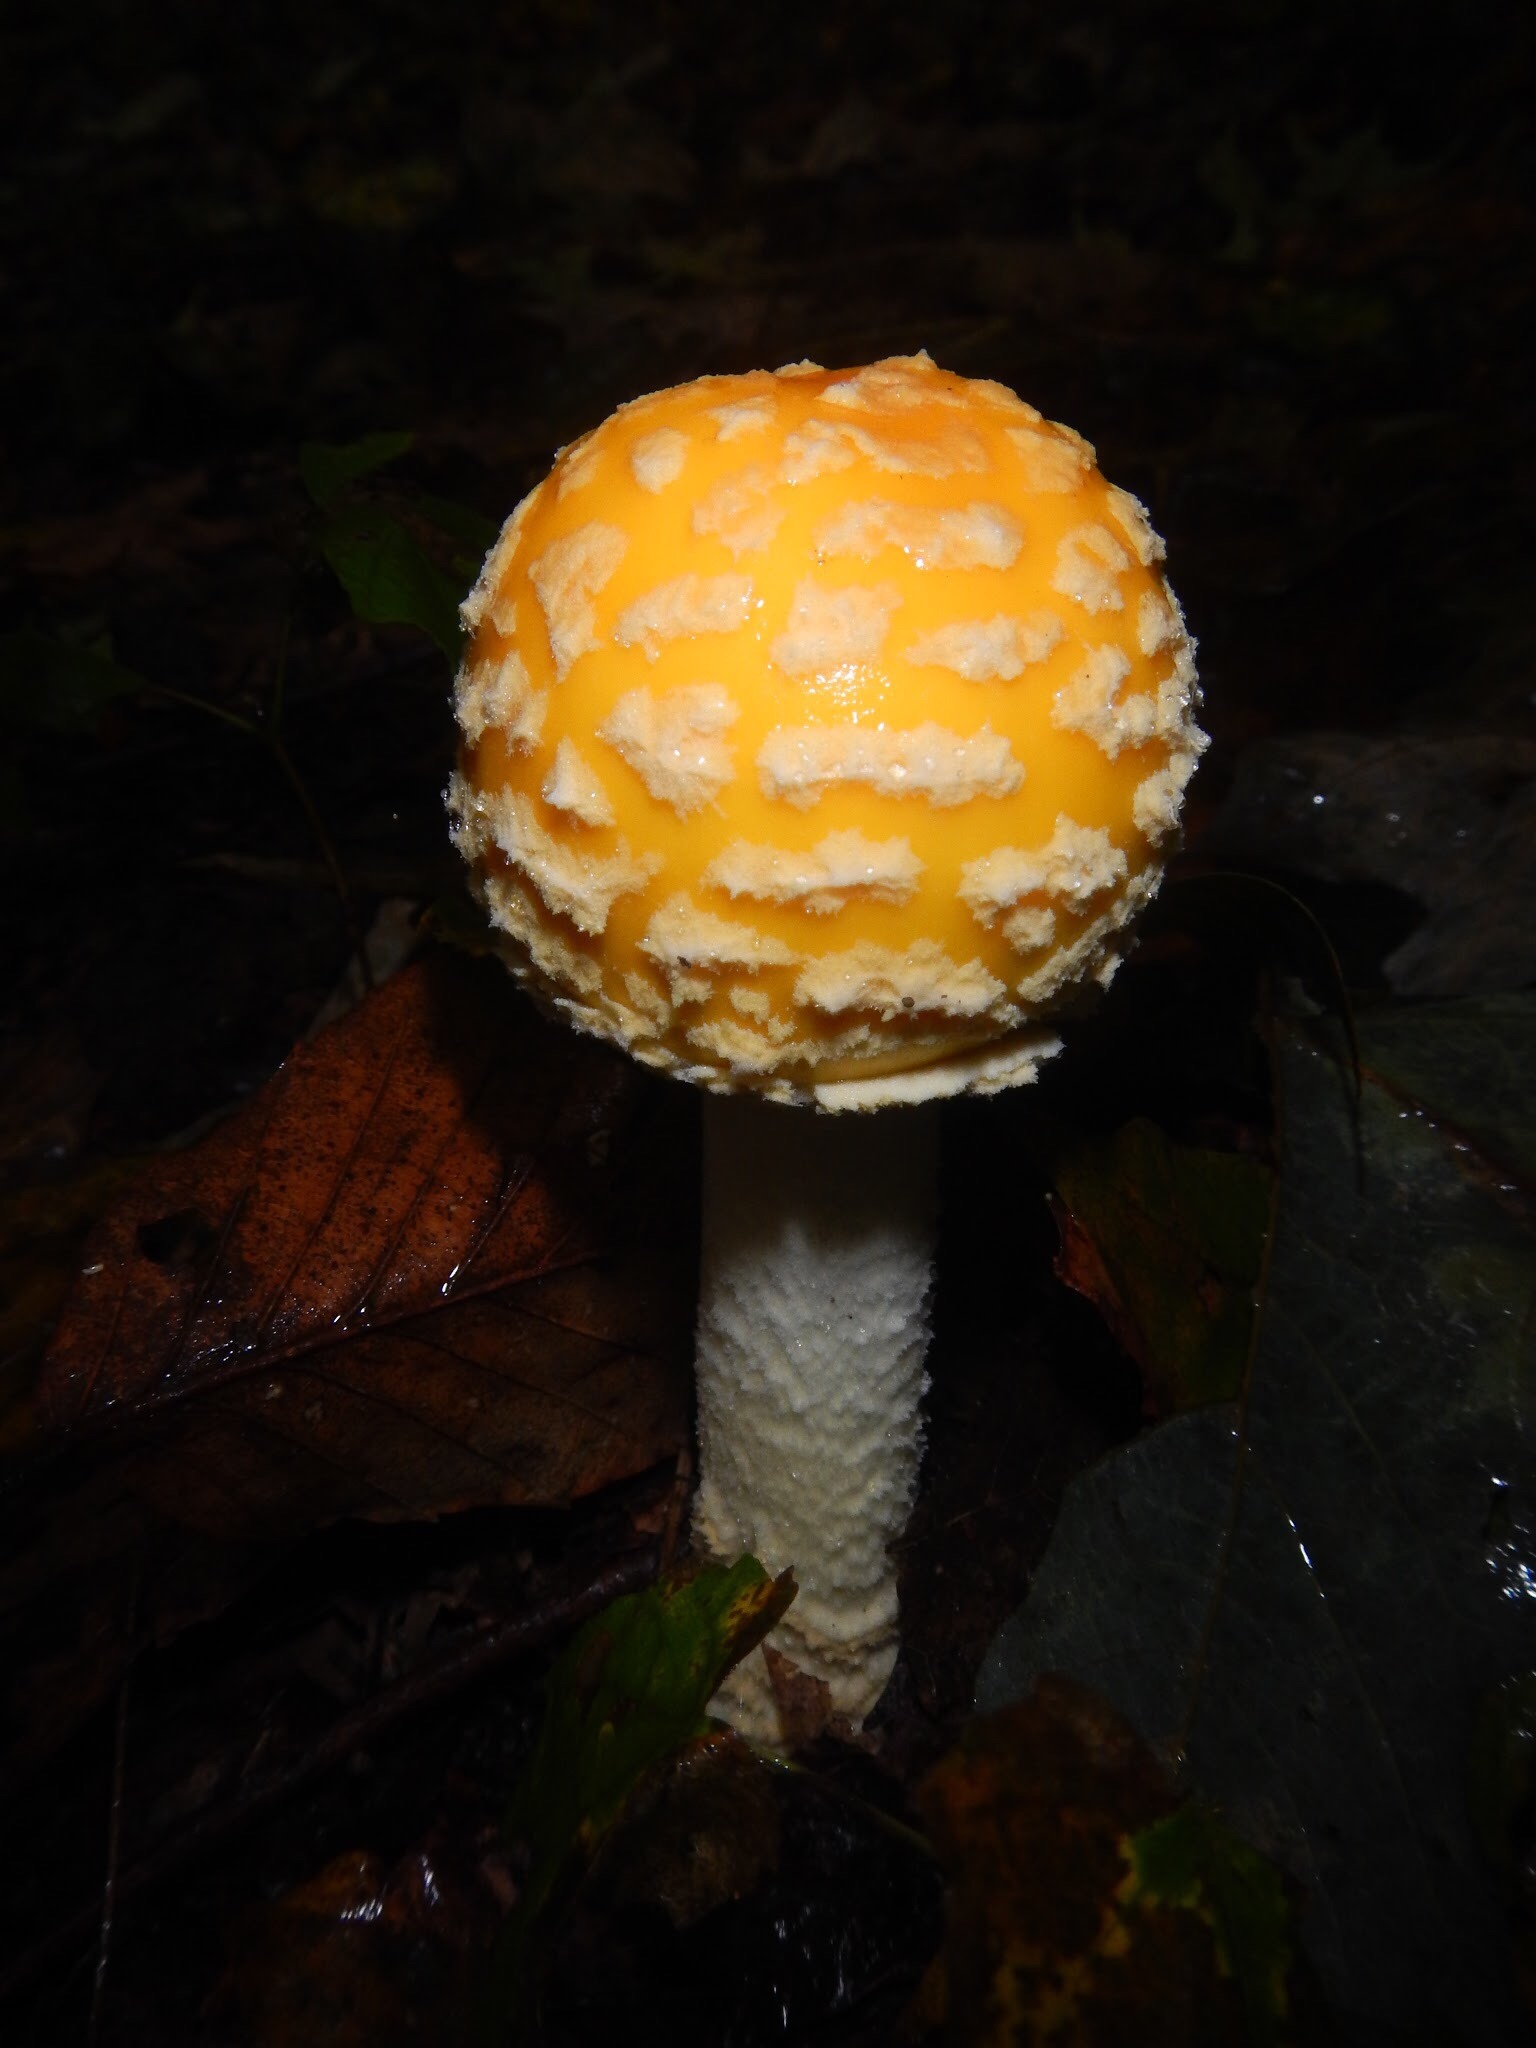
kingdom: Fungi
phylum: Basidiomycota
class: Agaricomycetes
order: Agaricales
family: Amanitaceae
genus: Amanita
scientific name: Amanita muscaria
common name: Fly agaric
